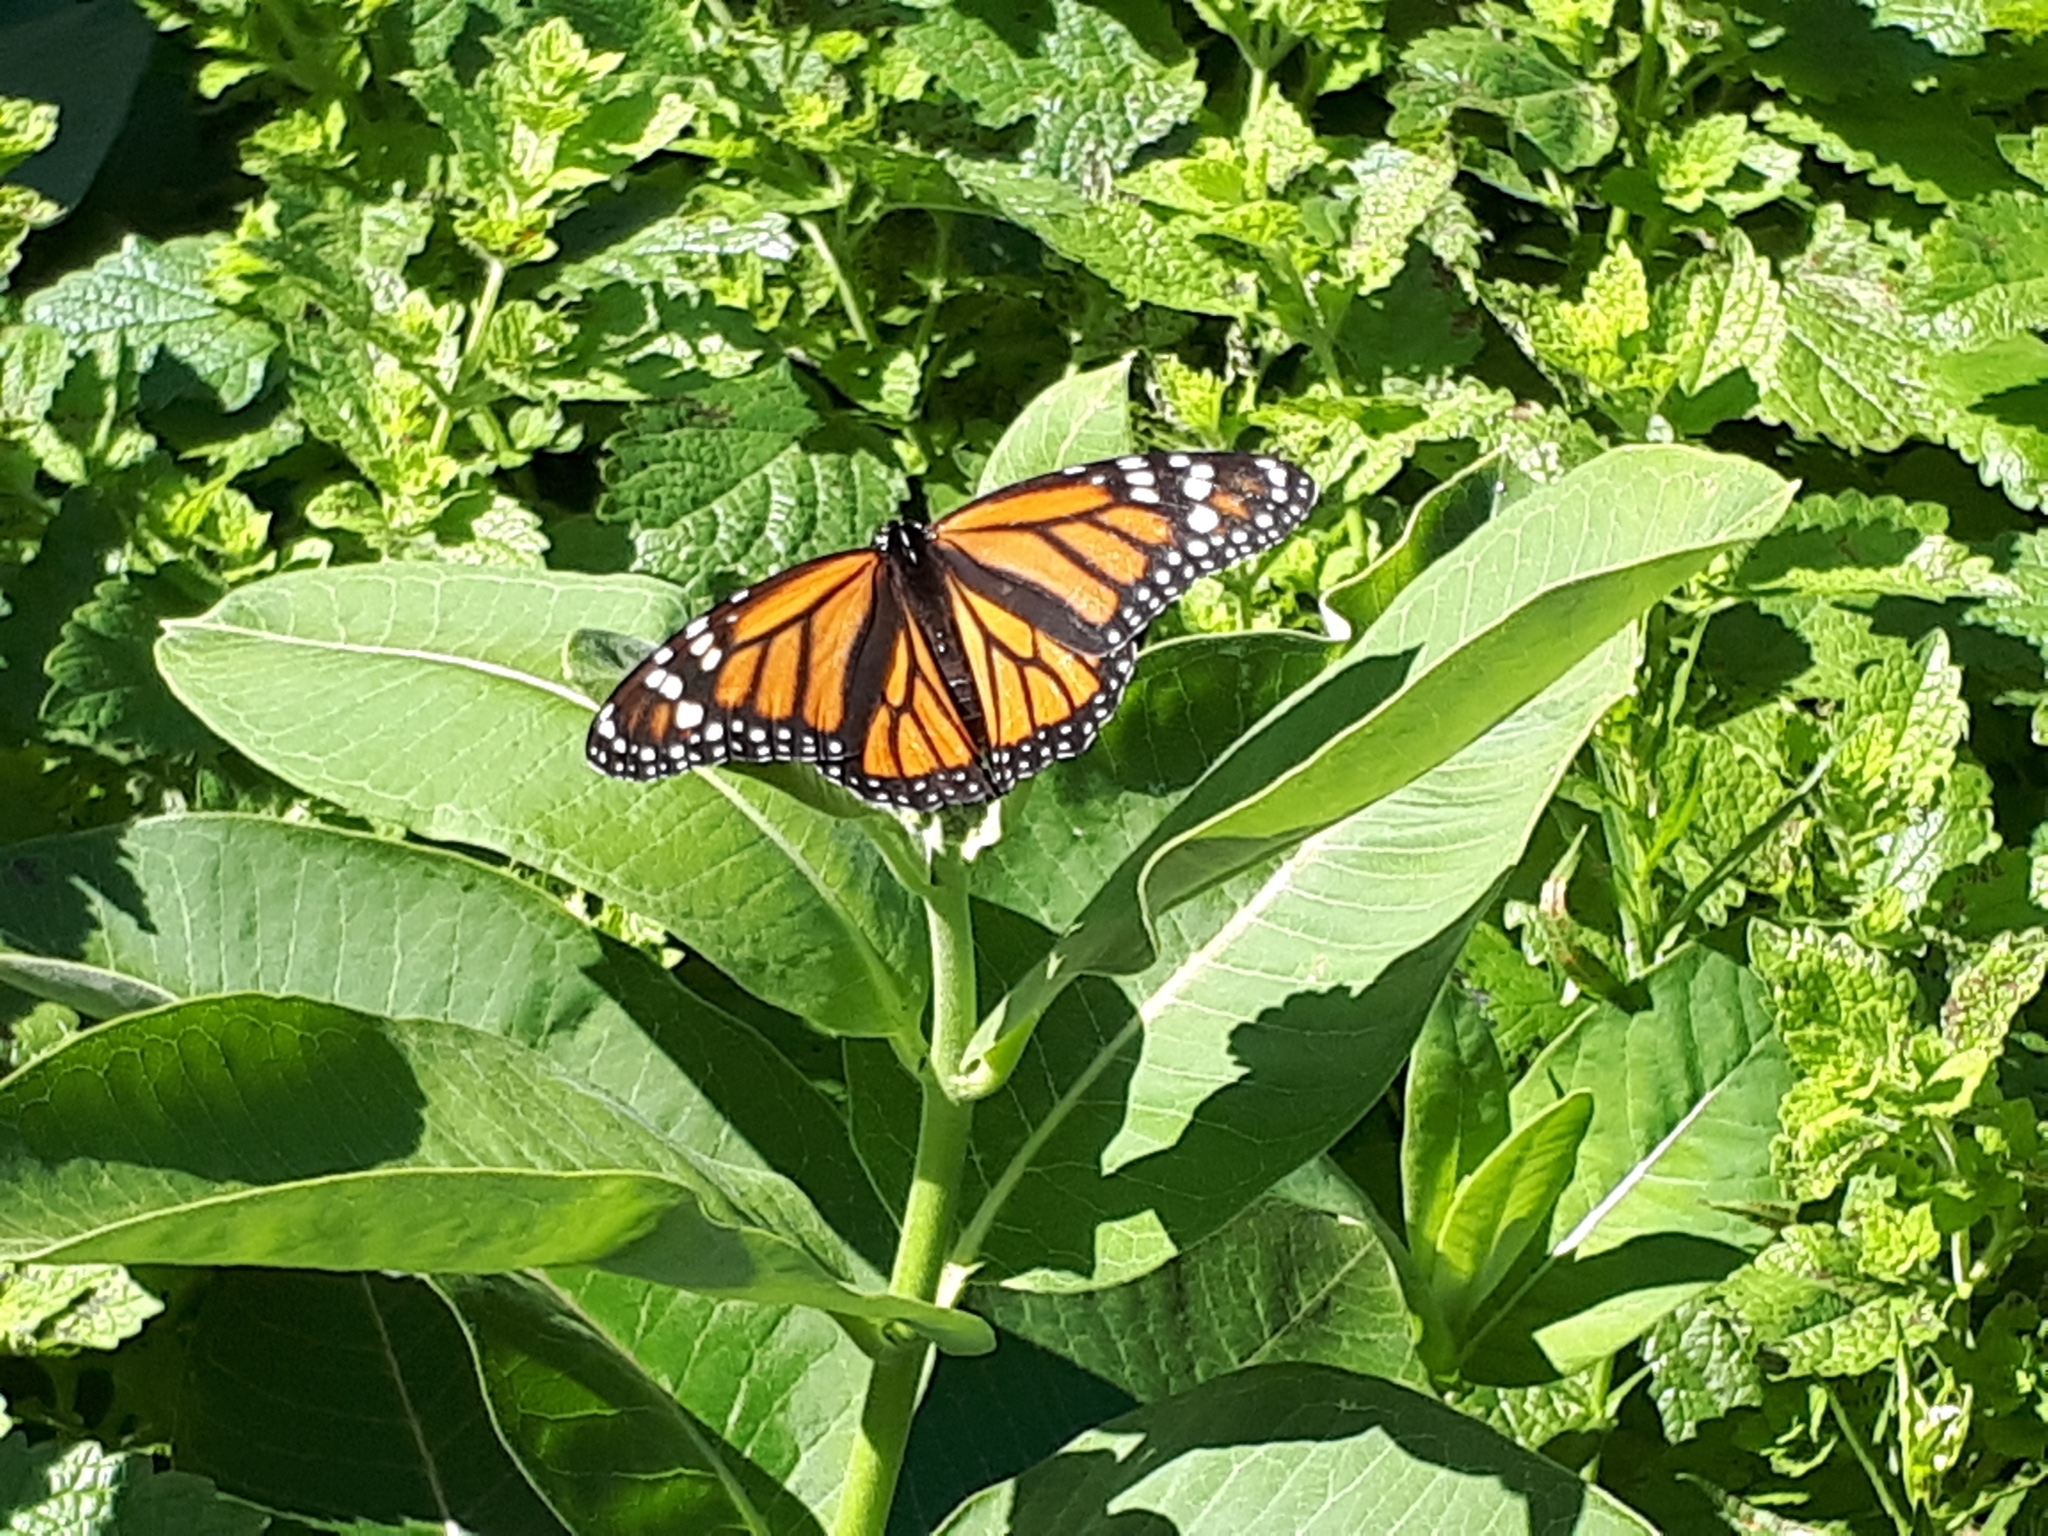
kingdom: Animalia
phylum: Arthropoda
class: Insecta
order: Lepidoptera
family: Nymphalidae
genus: Danaus
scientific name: Danaus plexippus
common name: Monarch
